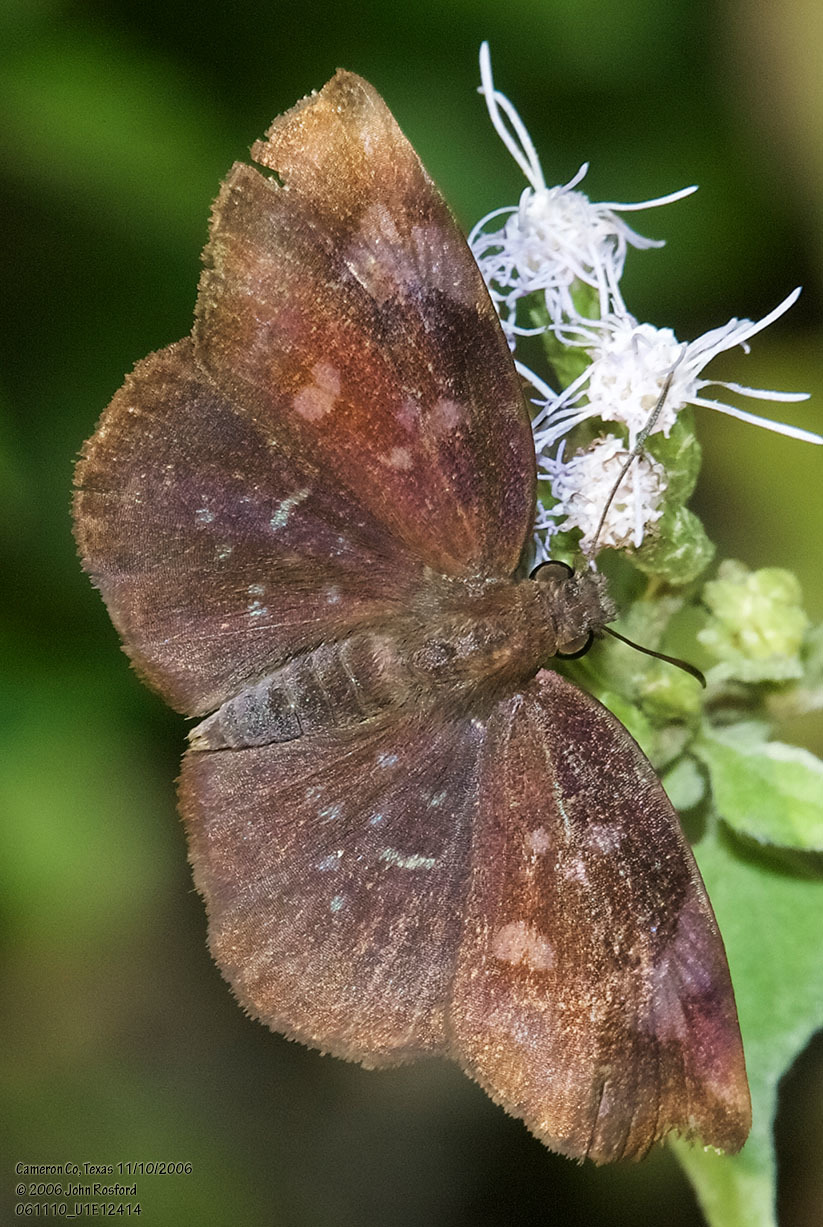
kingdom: Animalia
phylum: Arthropoda
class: Insecta
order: Lepidoptera
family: Hesperiidae
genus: Achlyodes
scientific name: Achlyodes thraso
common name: Sickle-winged skipper
